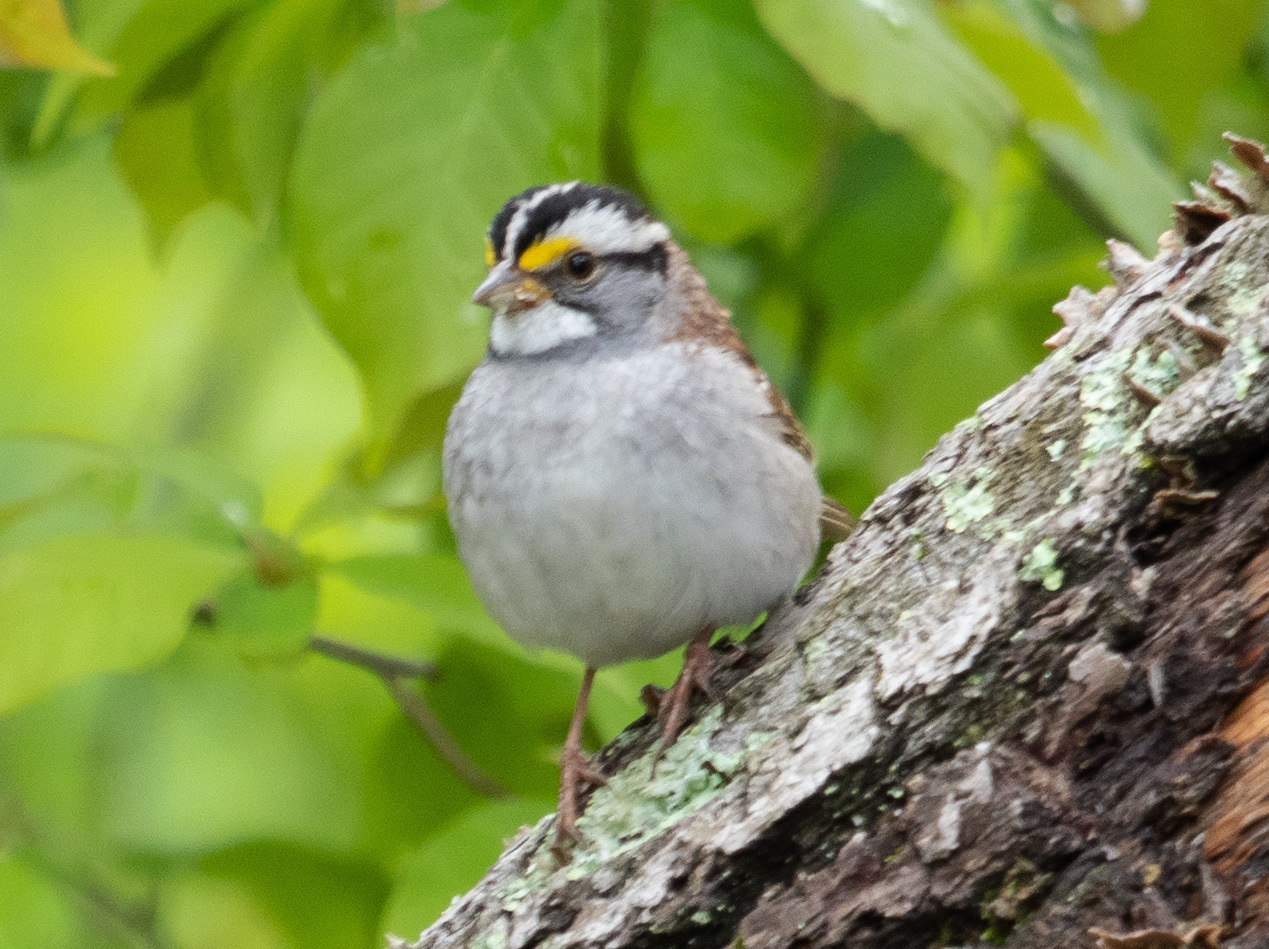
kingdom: Animalia
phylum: Chordata
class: Aves
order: Passeriformes
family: Passerellidae
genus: Zonotrichia
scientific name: Zonotrichia albicollis
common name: White-throated sparrow
